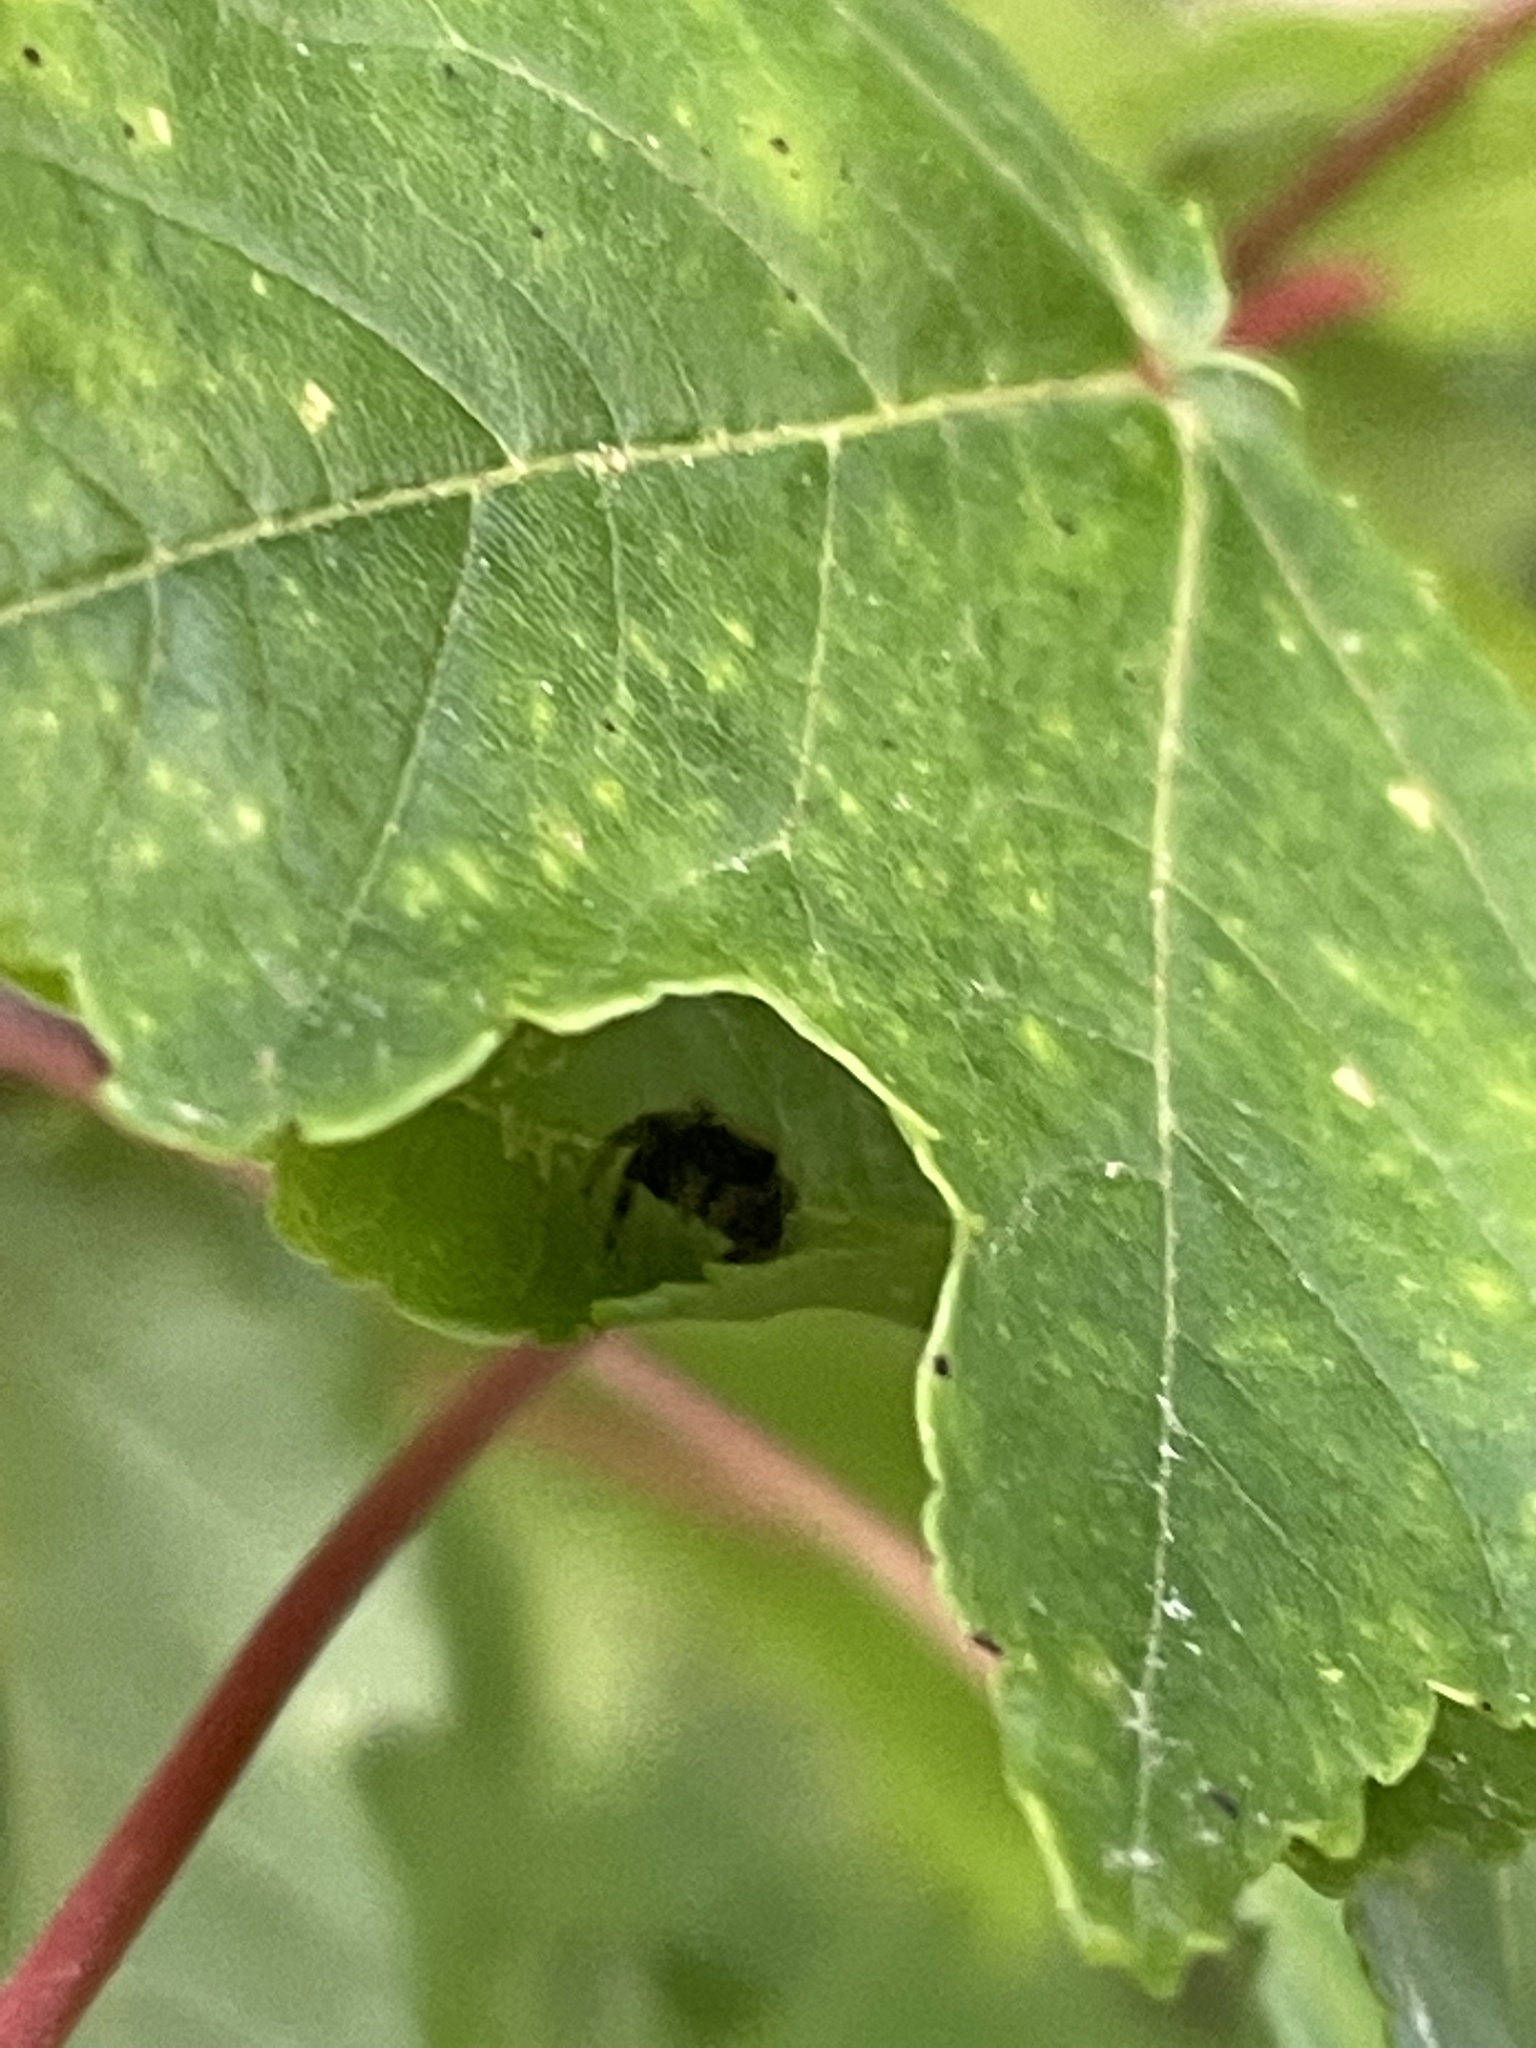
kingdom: Animalia
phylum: Arthropoda
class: Arachnida
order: Araneae
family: Salticidae
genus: Paraphidippus
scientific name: Paraphidippus aurantius
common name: Jumping spiders
